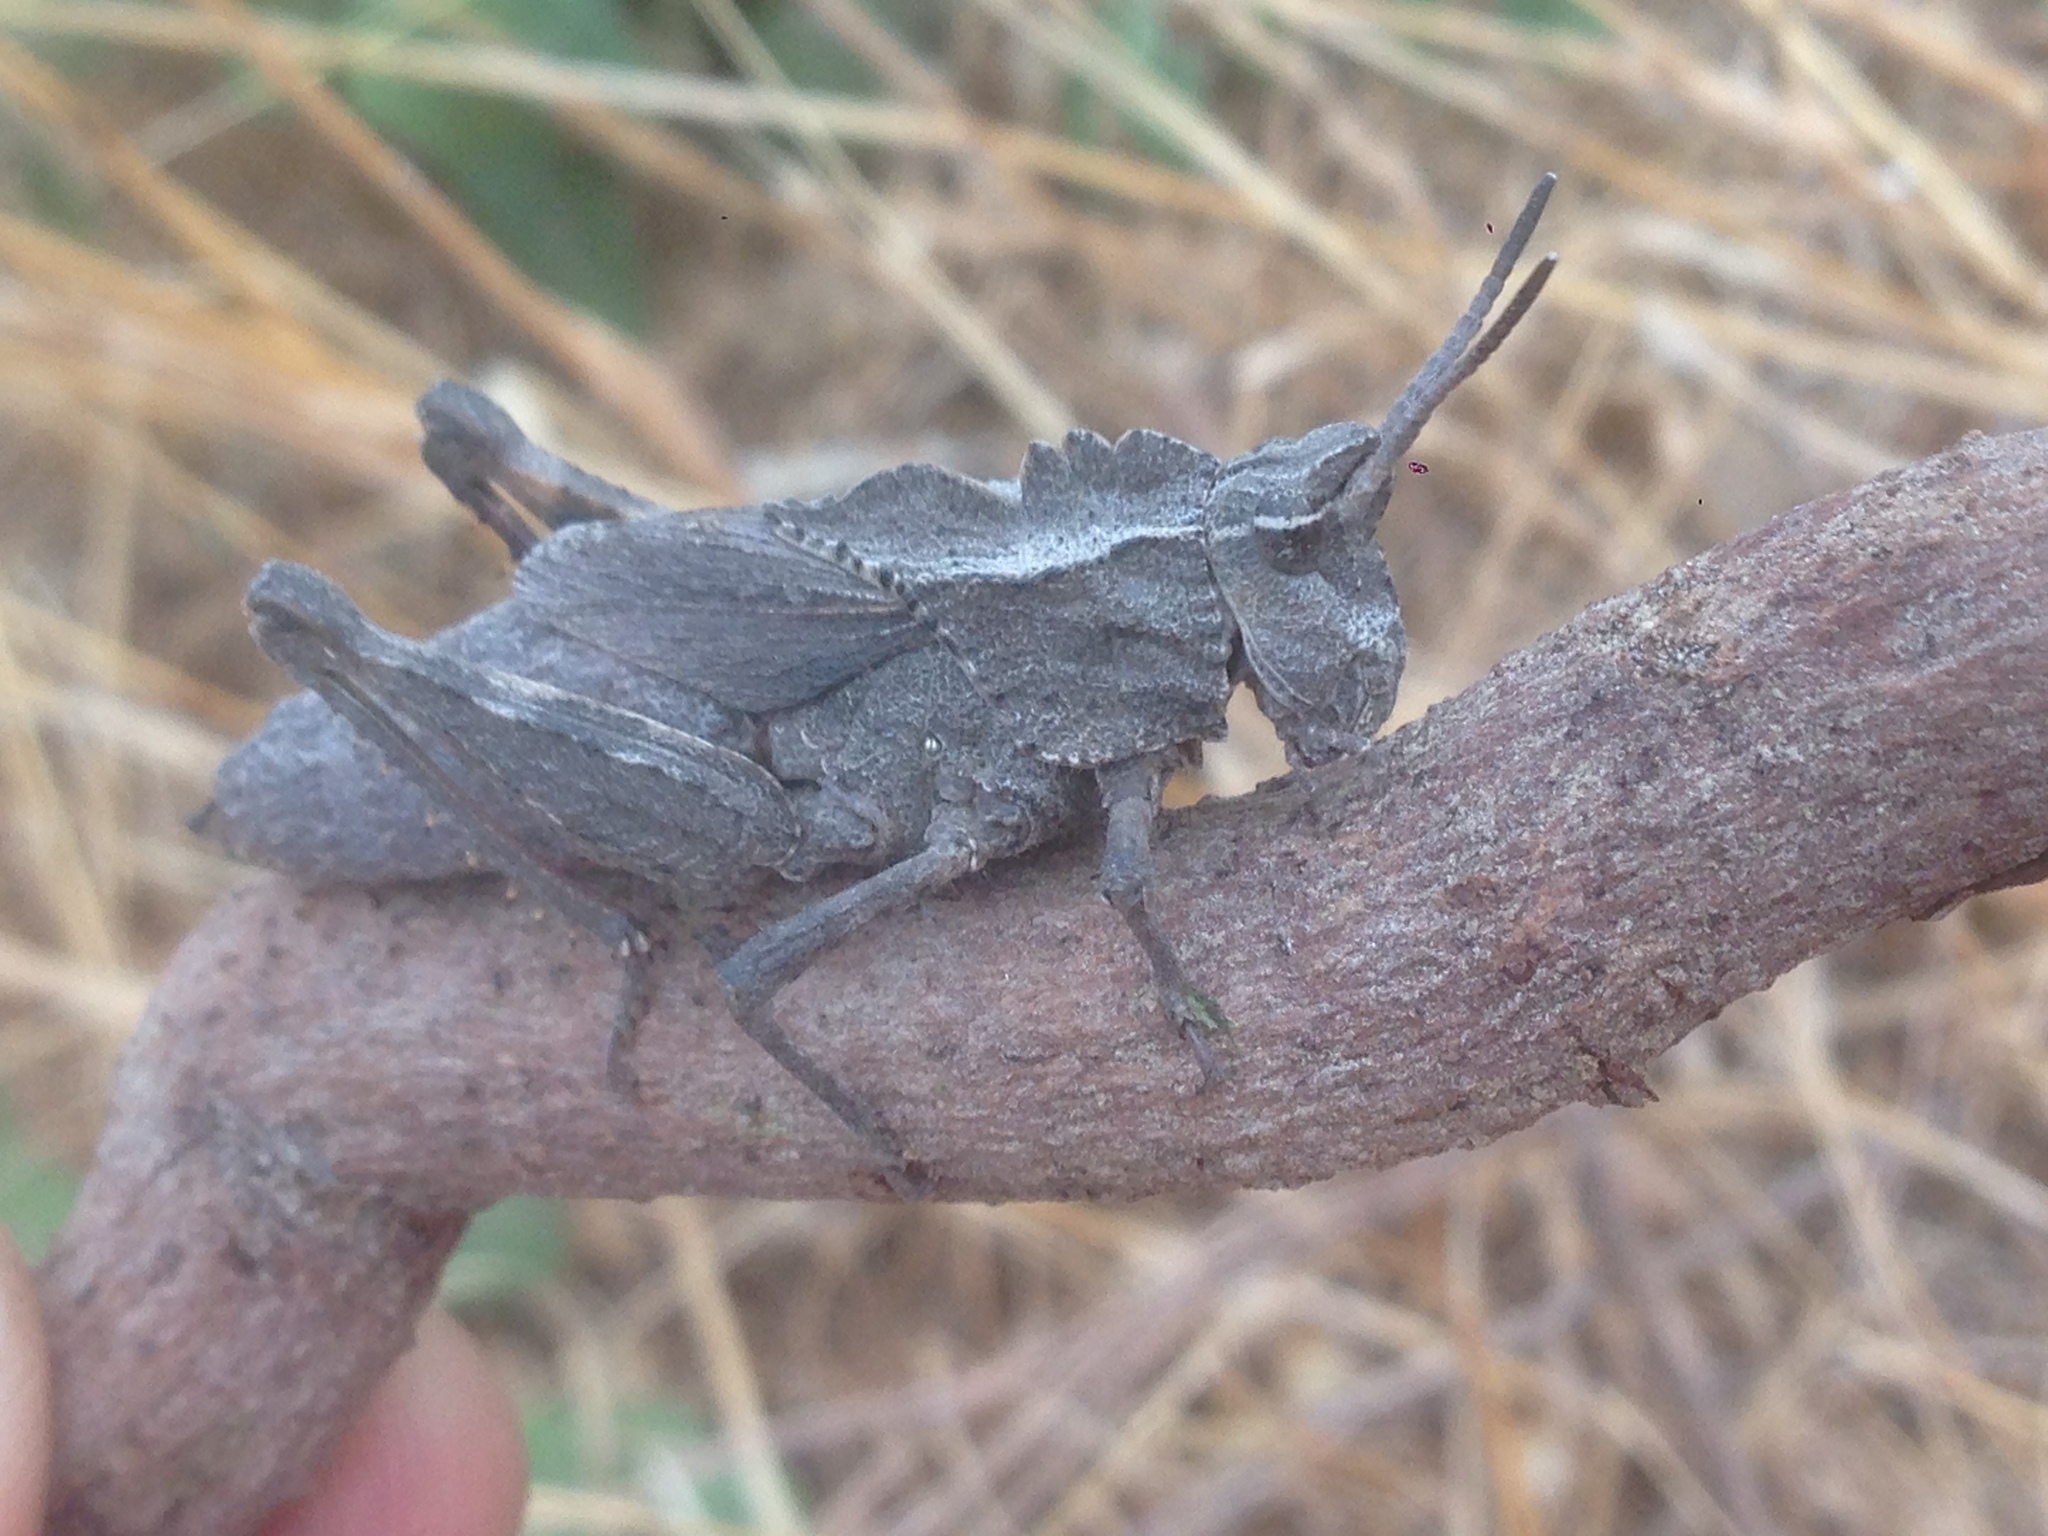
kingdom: Animalia
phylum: Arthropoda
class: Insecta
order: Orthoptera
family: Romaleidae
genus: Dracotettix
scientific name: Dracotettix monstrosus
